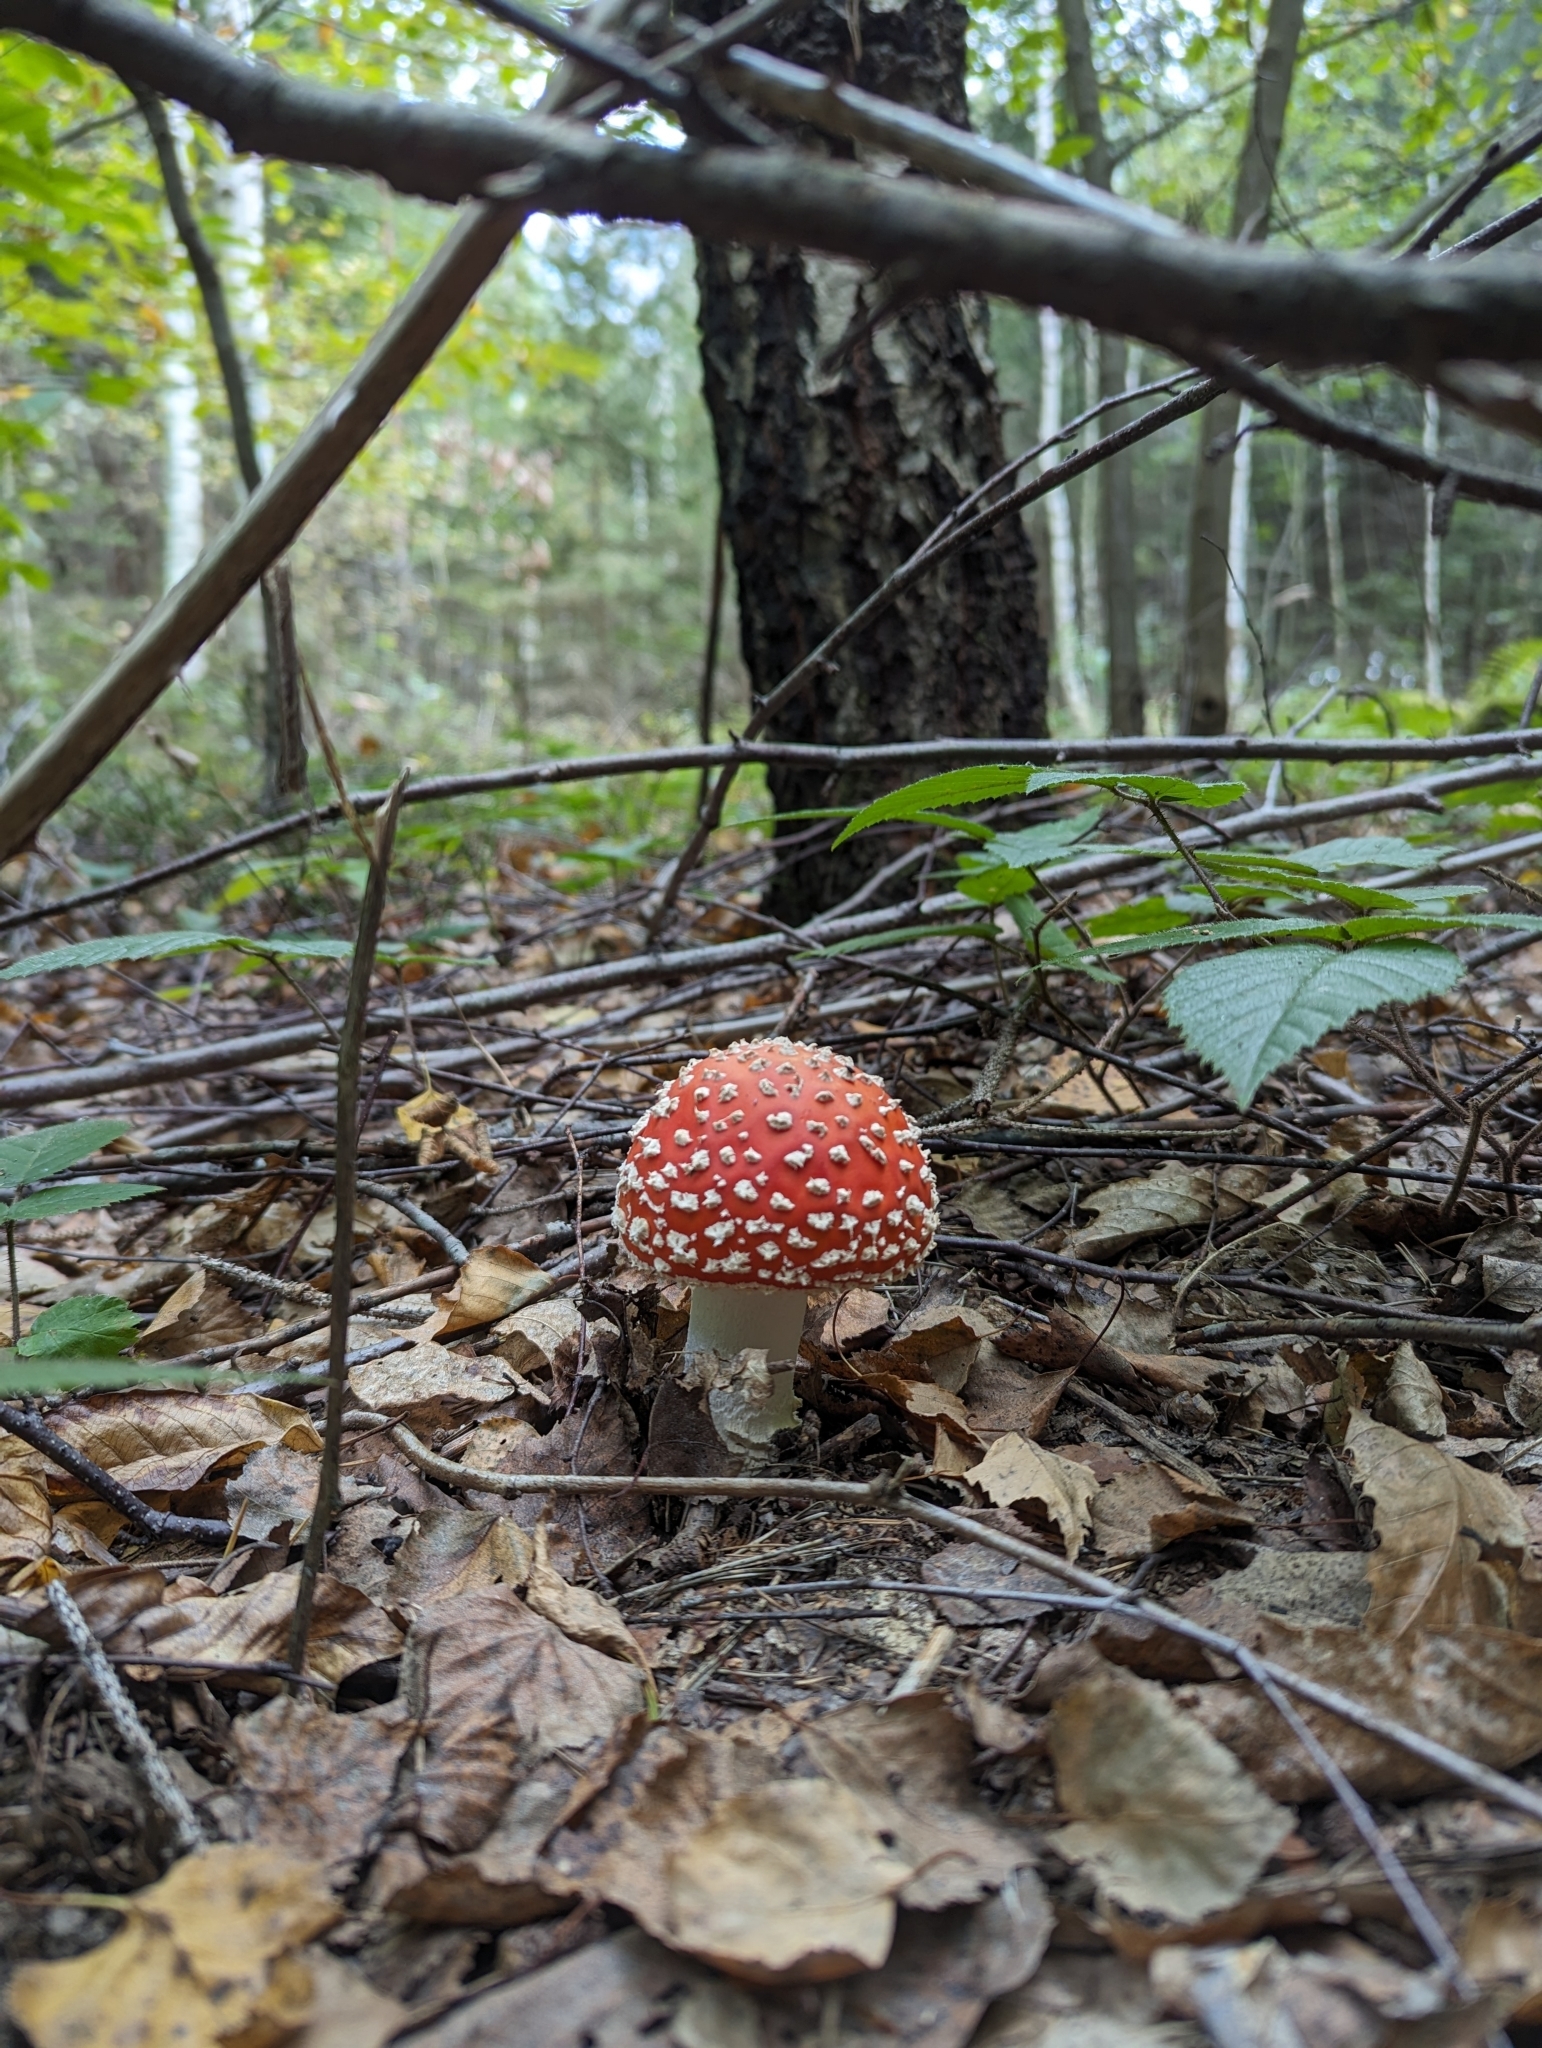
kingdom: Fungi
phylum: Basidiomycota
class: Agaricomycetes
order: Agaricales
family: Amanitaceae
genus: Amanita
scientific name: Amanita muscaria
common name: Fly agaric
